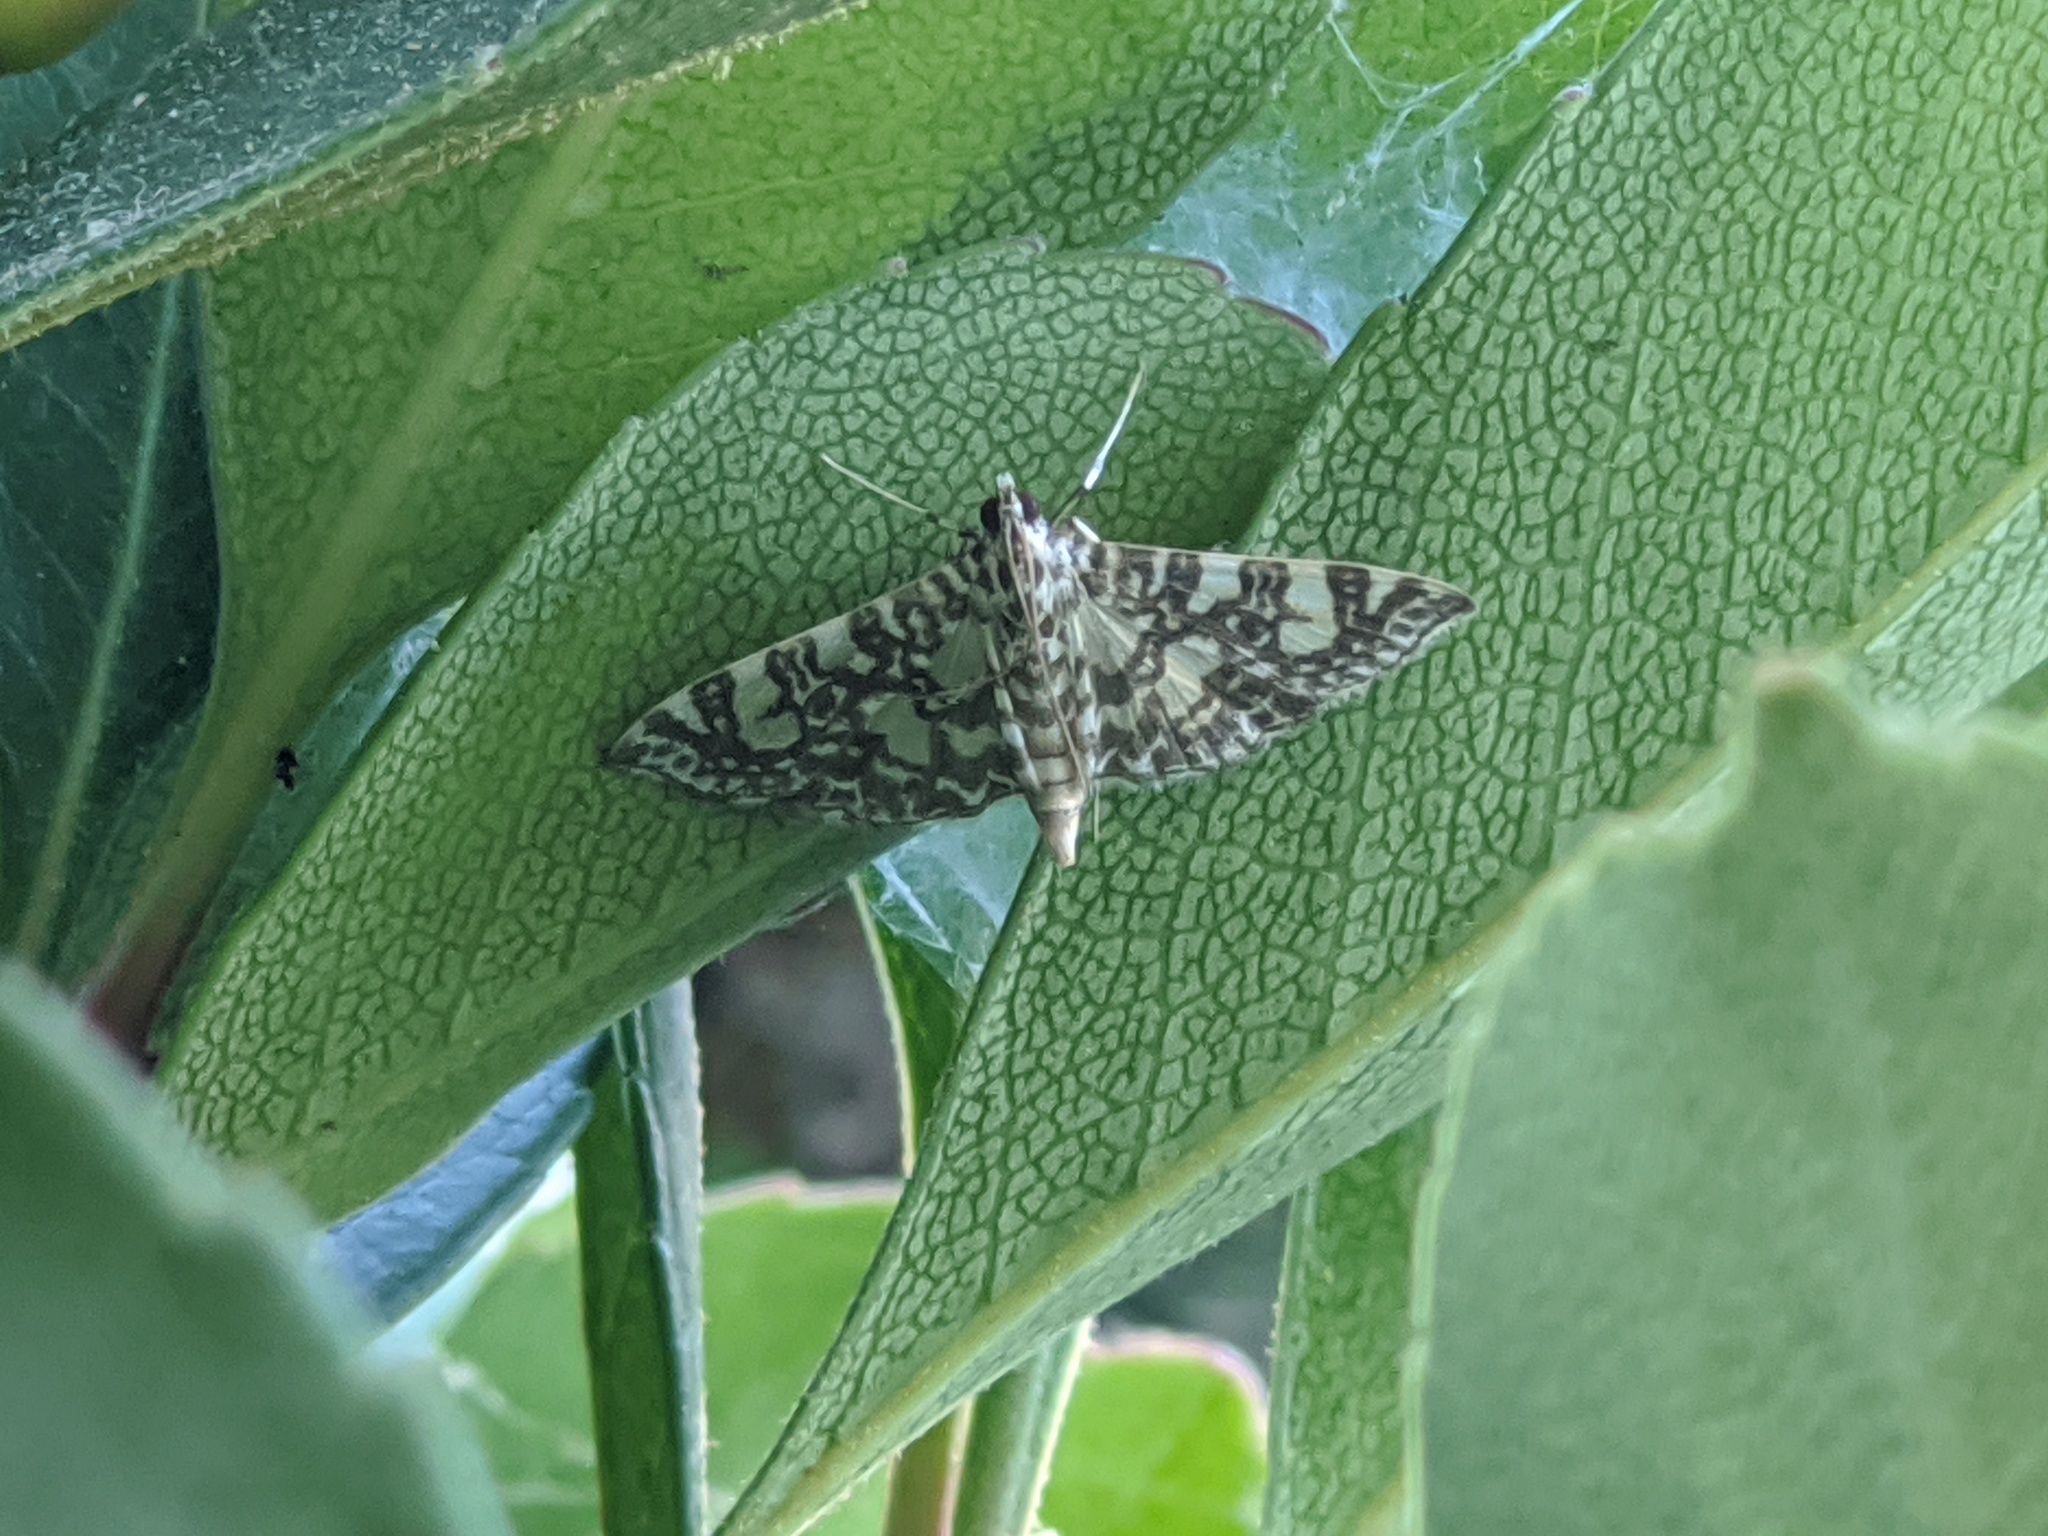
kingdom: Animalia
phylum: Arthropoda
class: Insecta
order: Lepidoptera
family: Crambidae
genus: Glyphodes
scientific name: Glyphodes onychinalis
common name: Swan plant moth
